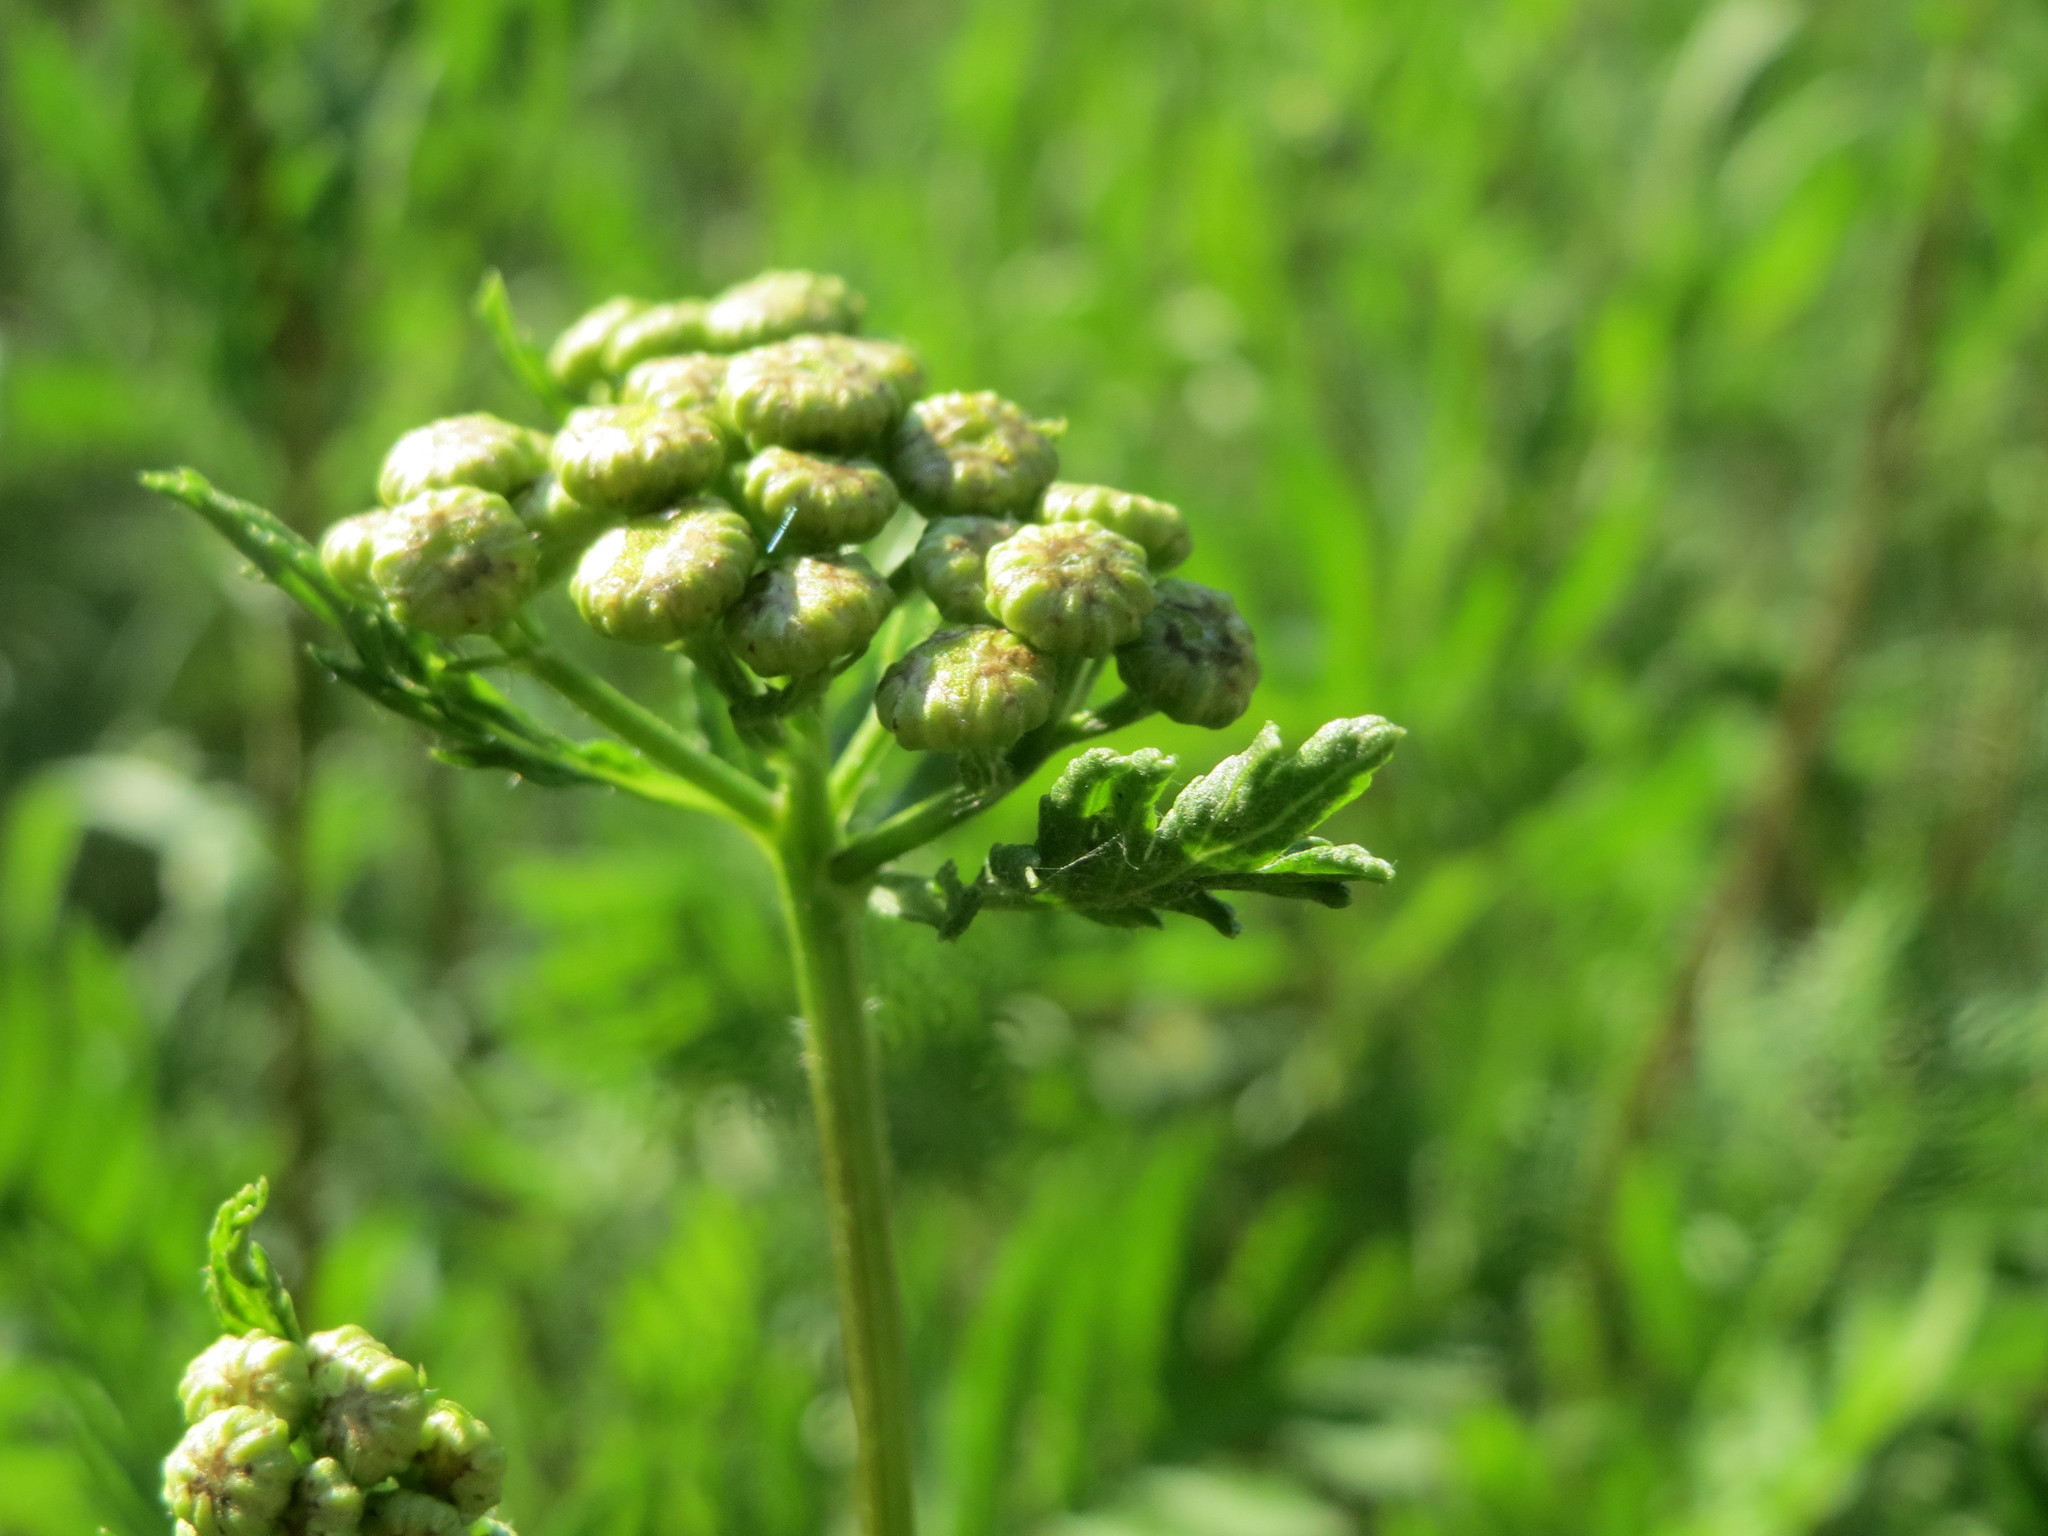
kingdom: Plantae
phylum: Tracheophyta
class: Magnoliopsida
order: Asterales
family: Asteraceae
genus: Tanacetum
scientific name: Tanacetum vulgare
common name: Common tansy
